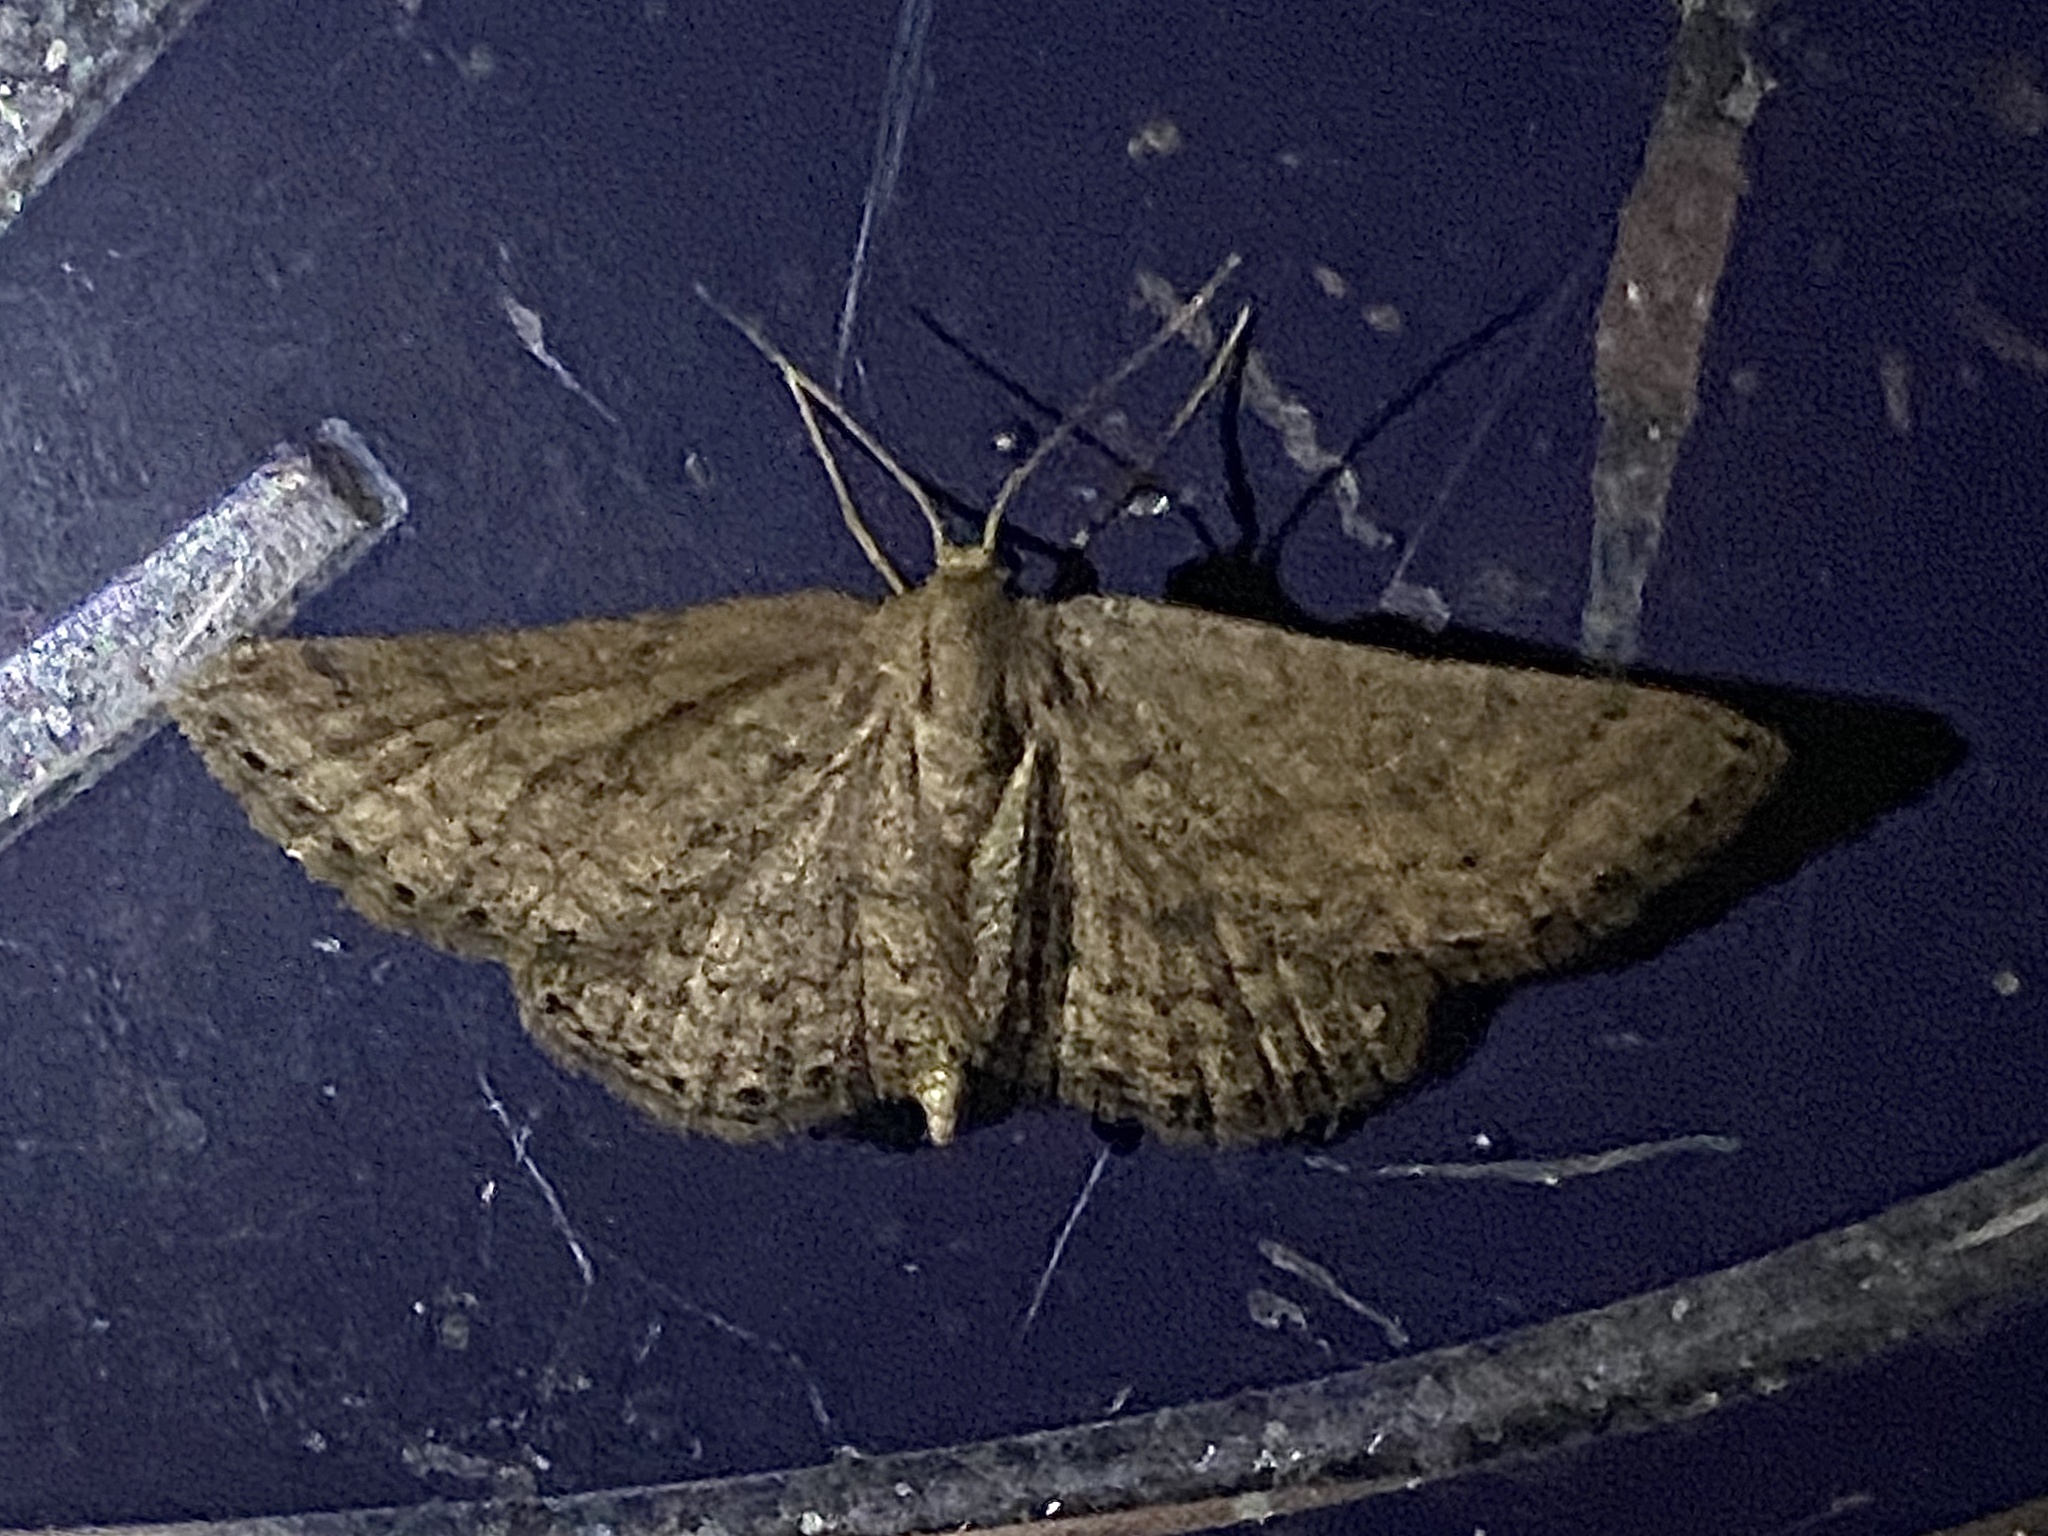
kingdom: Animalia
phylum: Arthropoda
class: Insecta
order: Lepidoptera
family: Geometridae
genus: Lobocleta
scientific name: Lobocleta ossularia
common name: Drab brown wave
